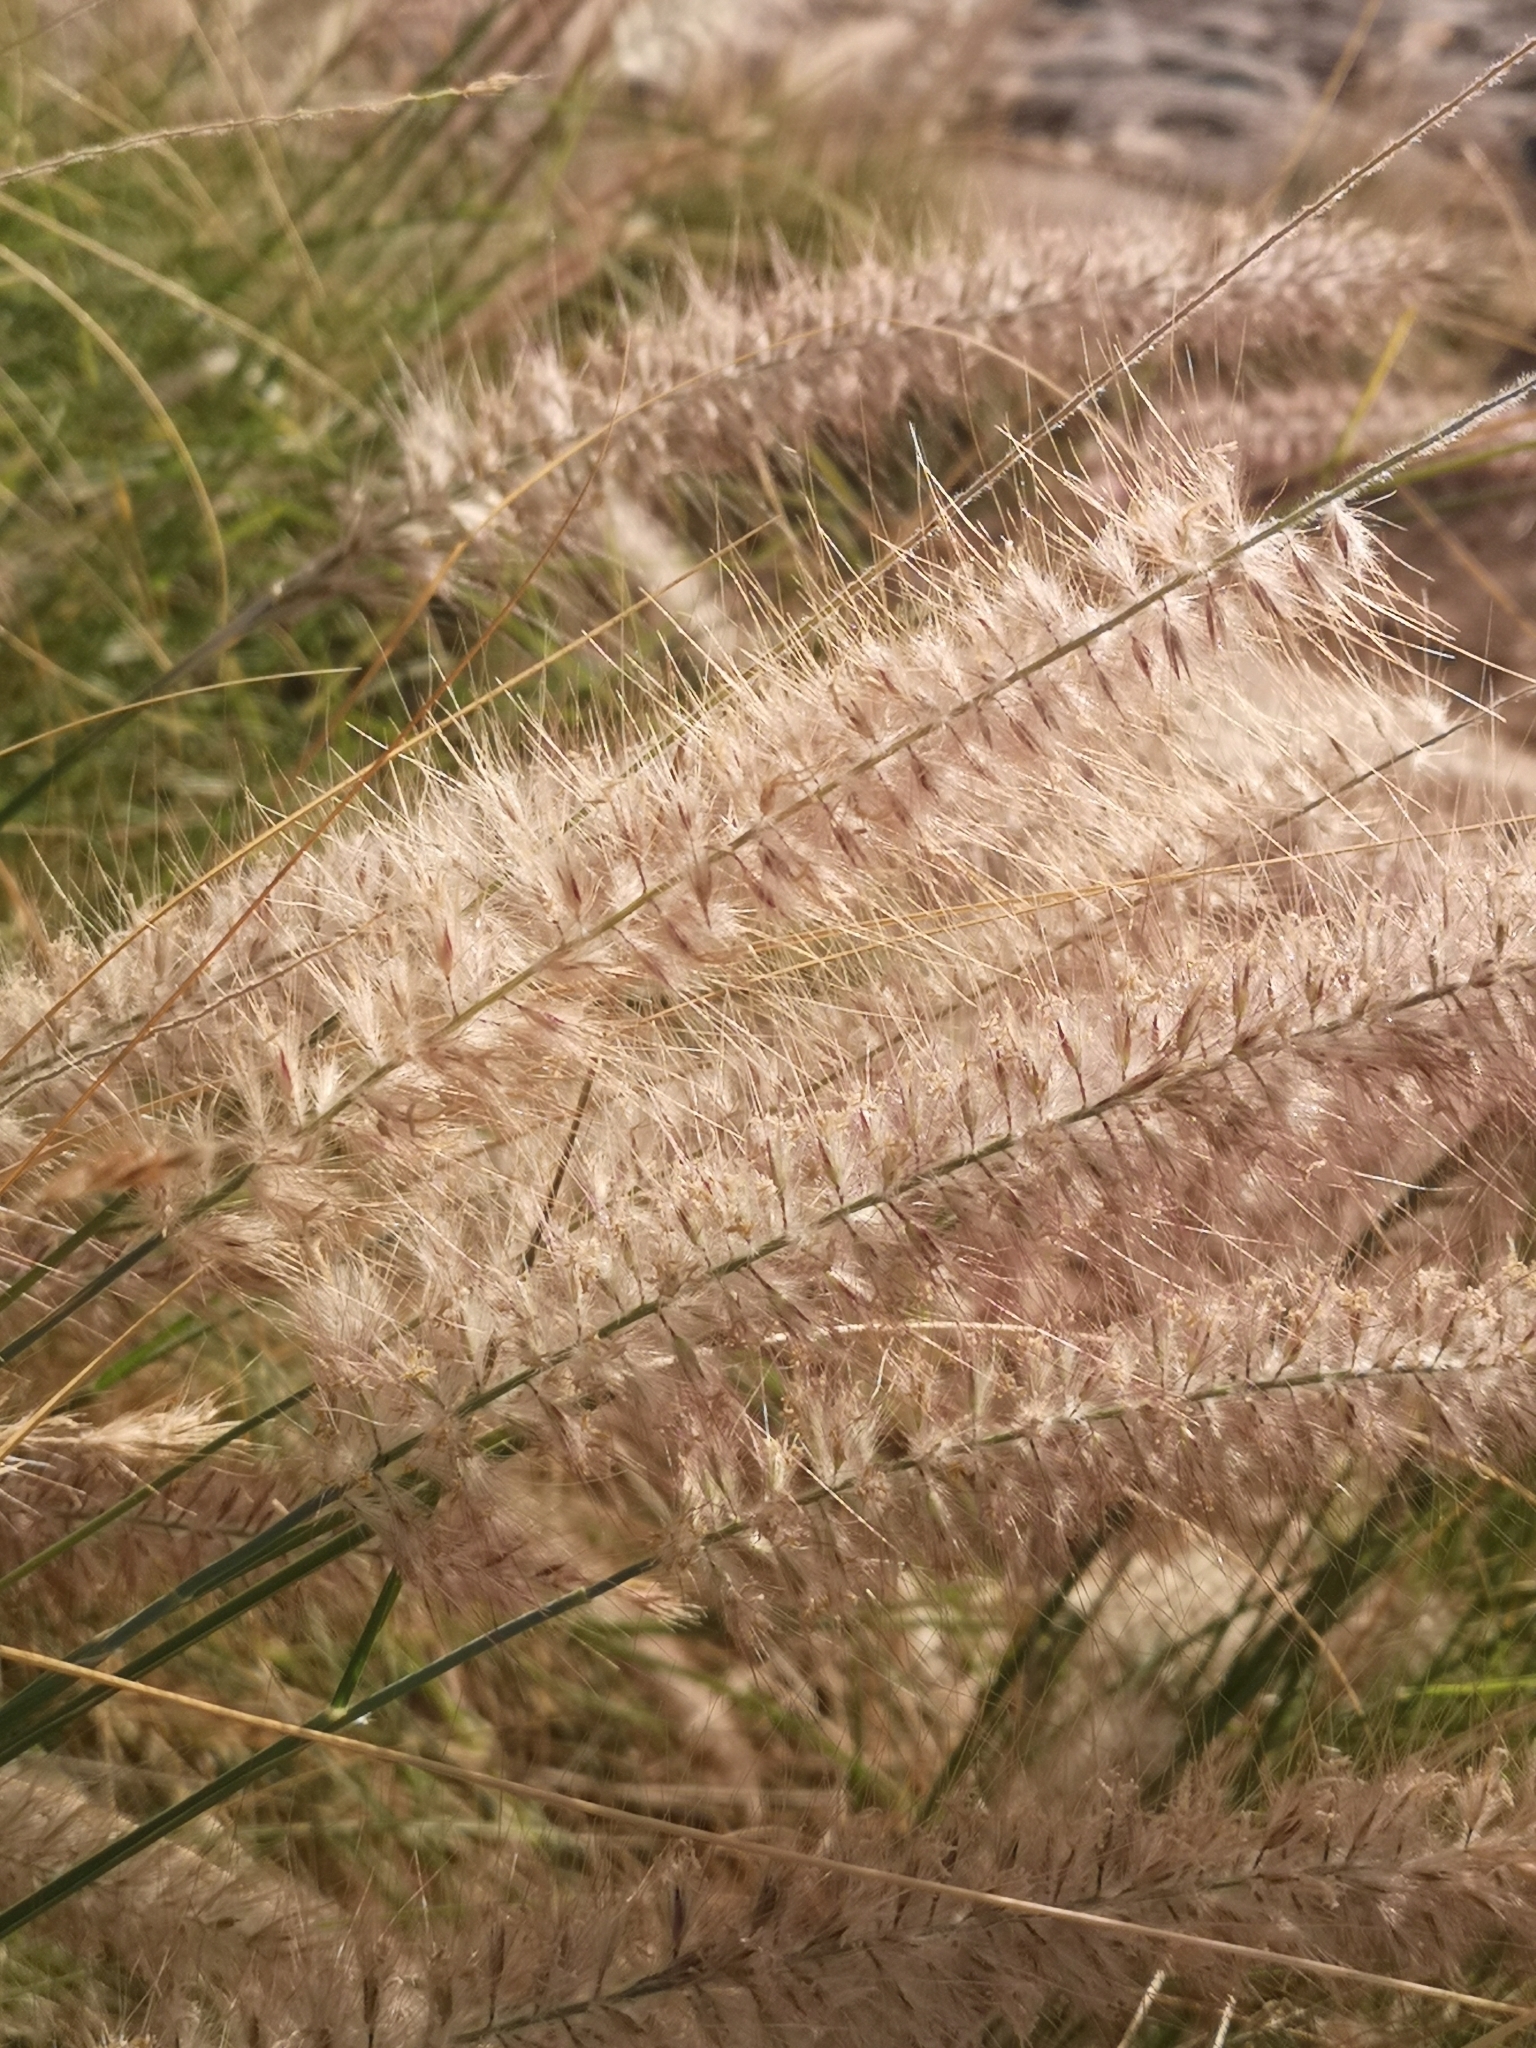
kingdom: Plantae
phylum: Tracheophyta
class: Liliopsida
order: Poales
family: Poaceae
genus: Cenchrus
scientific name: Cenchrus setaceus
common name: Crimson fountaingrass
